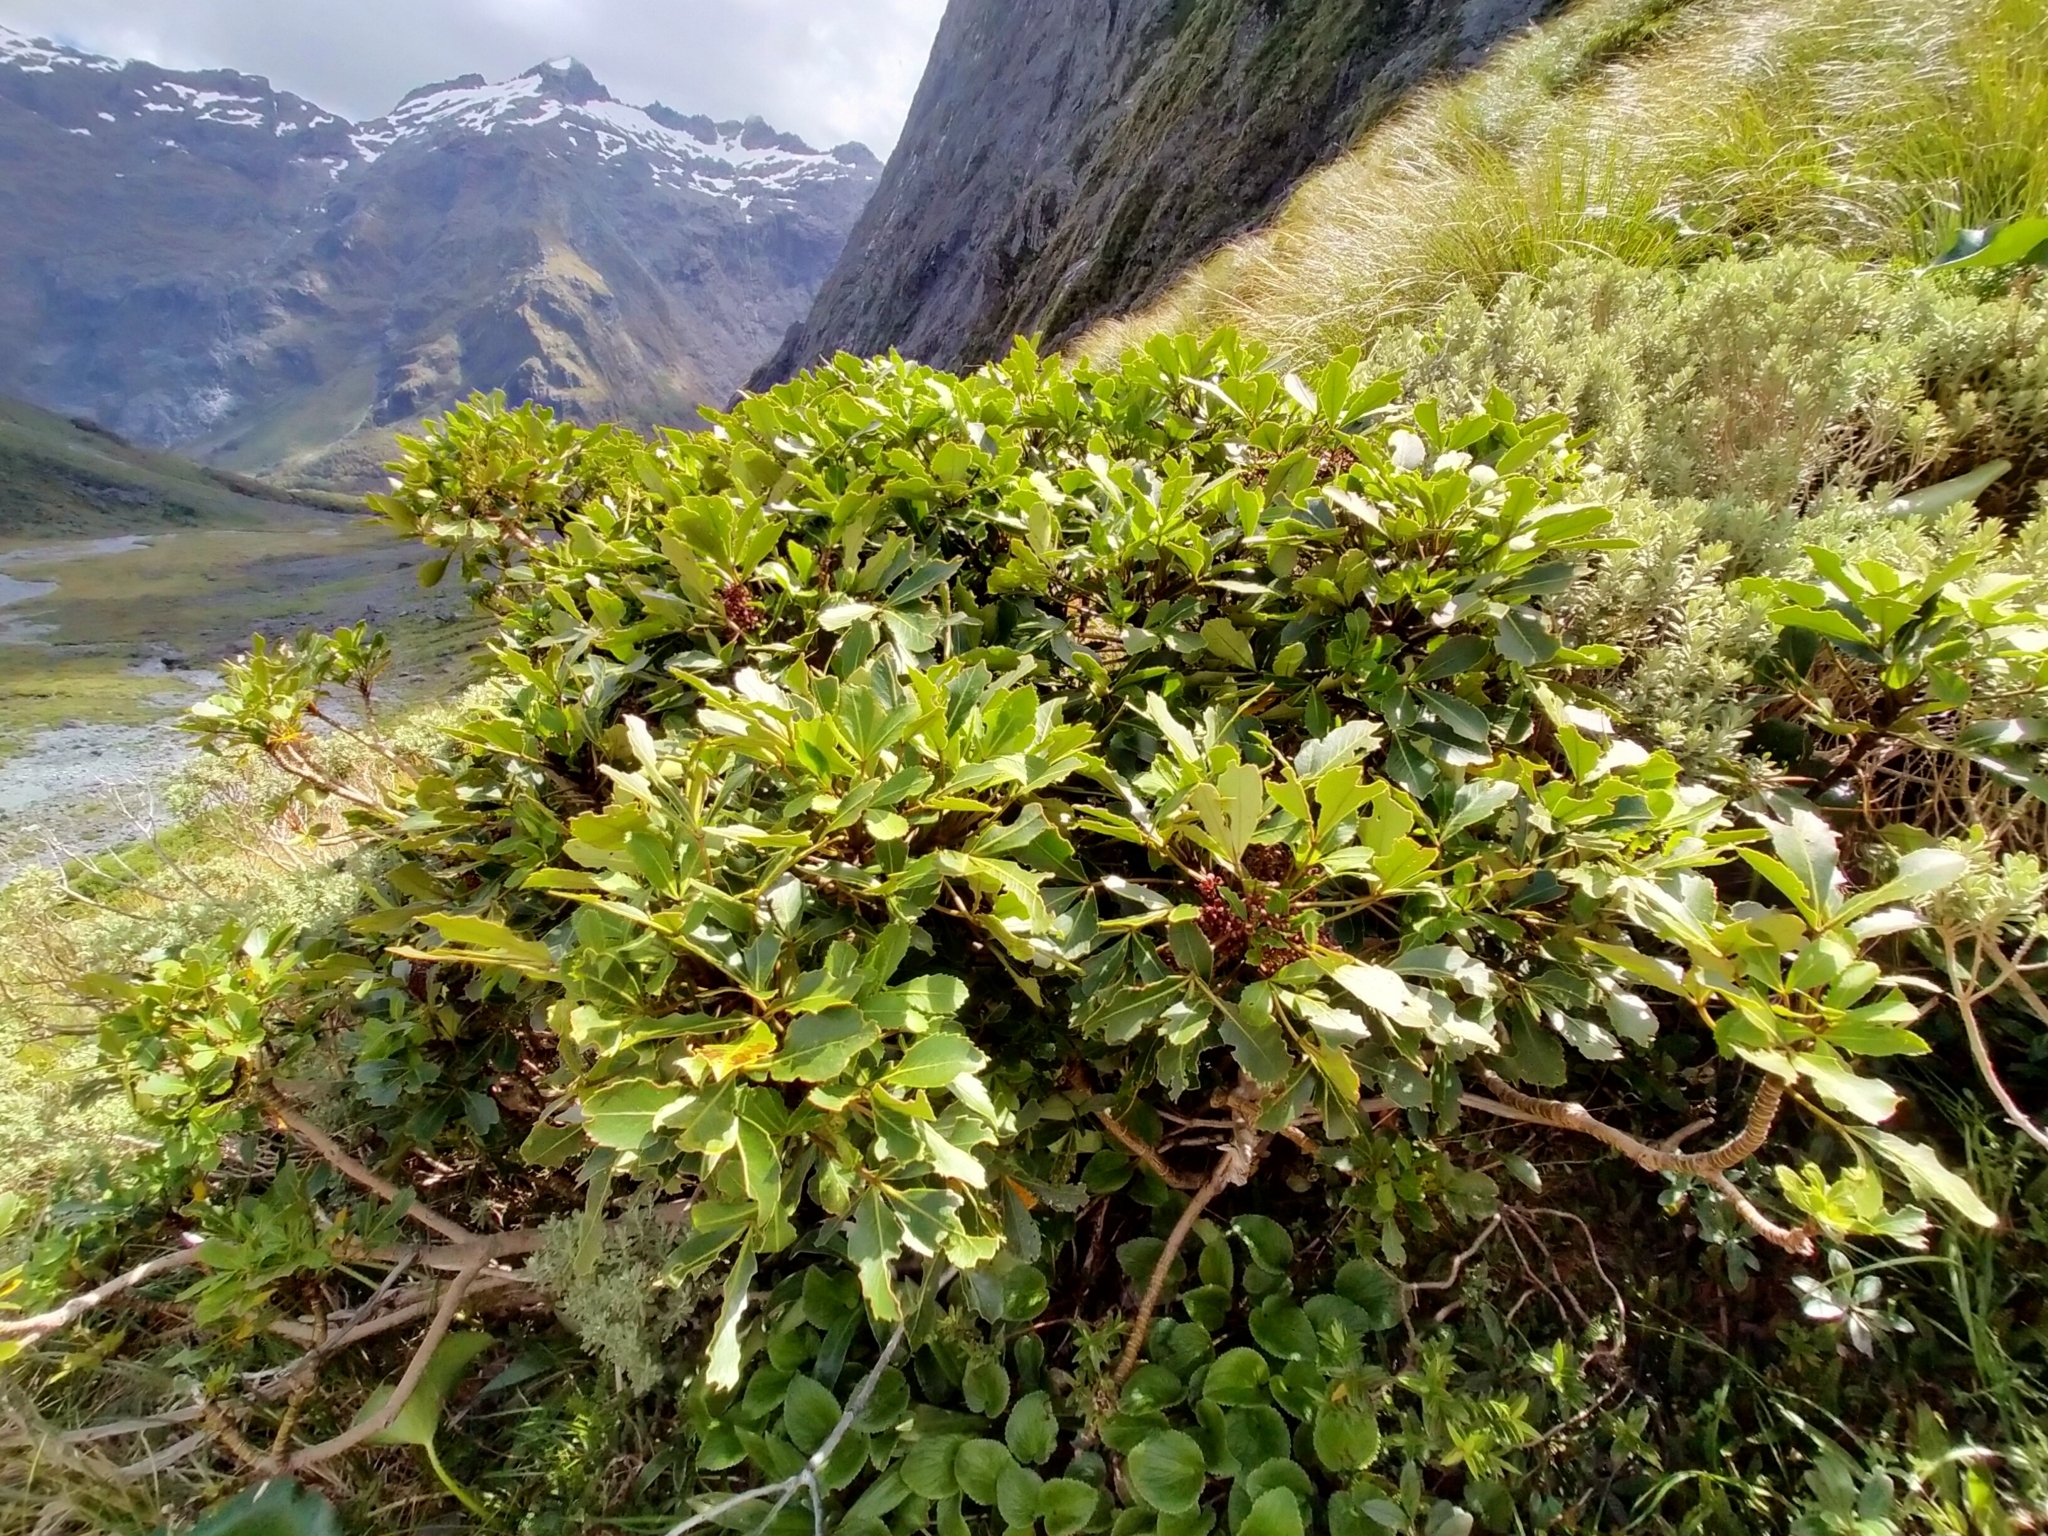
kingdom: Plantae
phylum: Tracheophyta
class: Magnoliopsida
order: Apiales
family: Araliaceae
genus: Neopanax
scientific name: Neopanax colensoi
